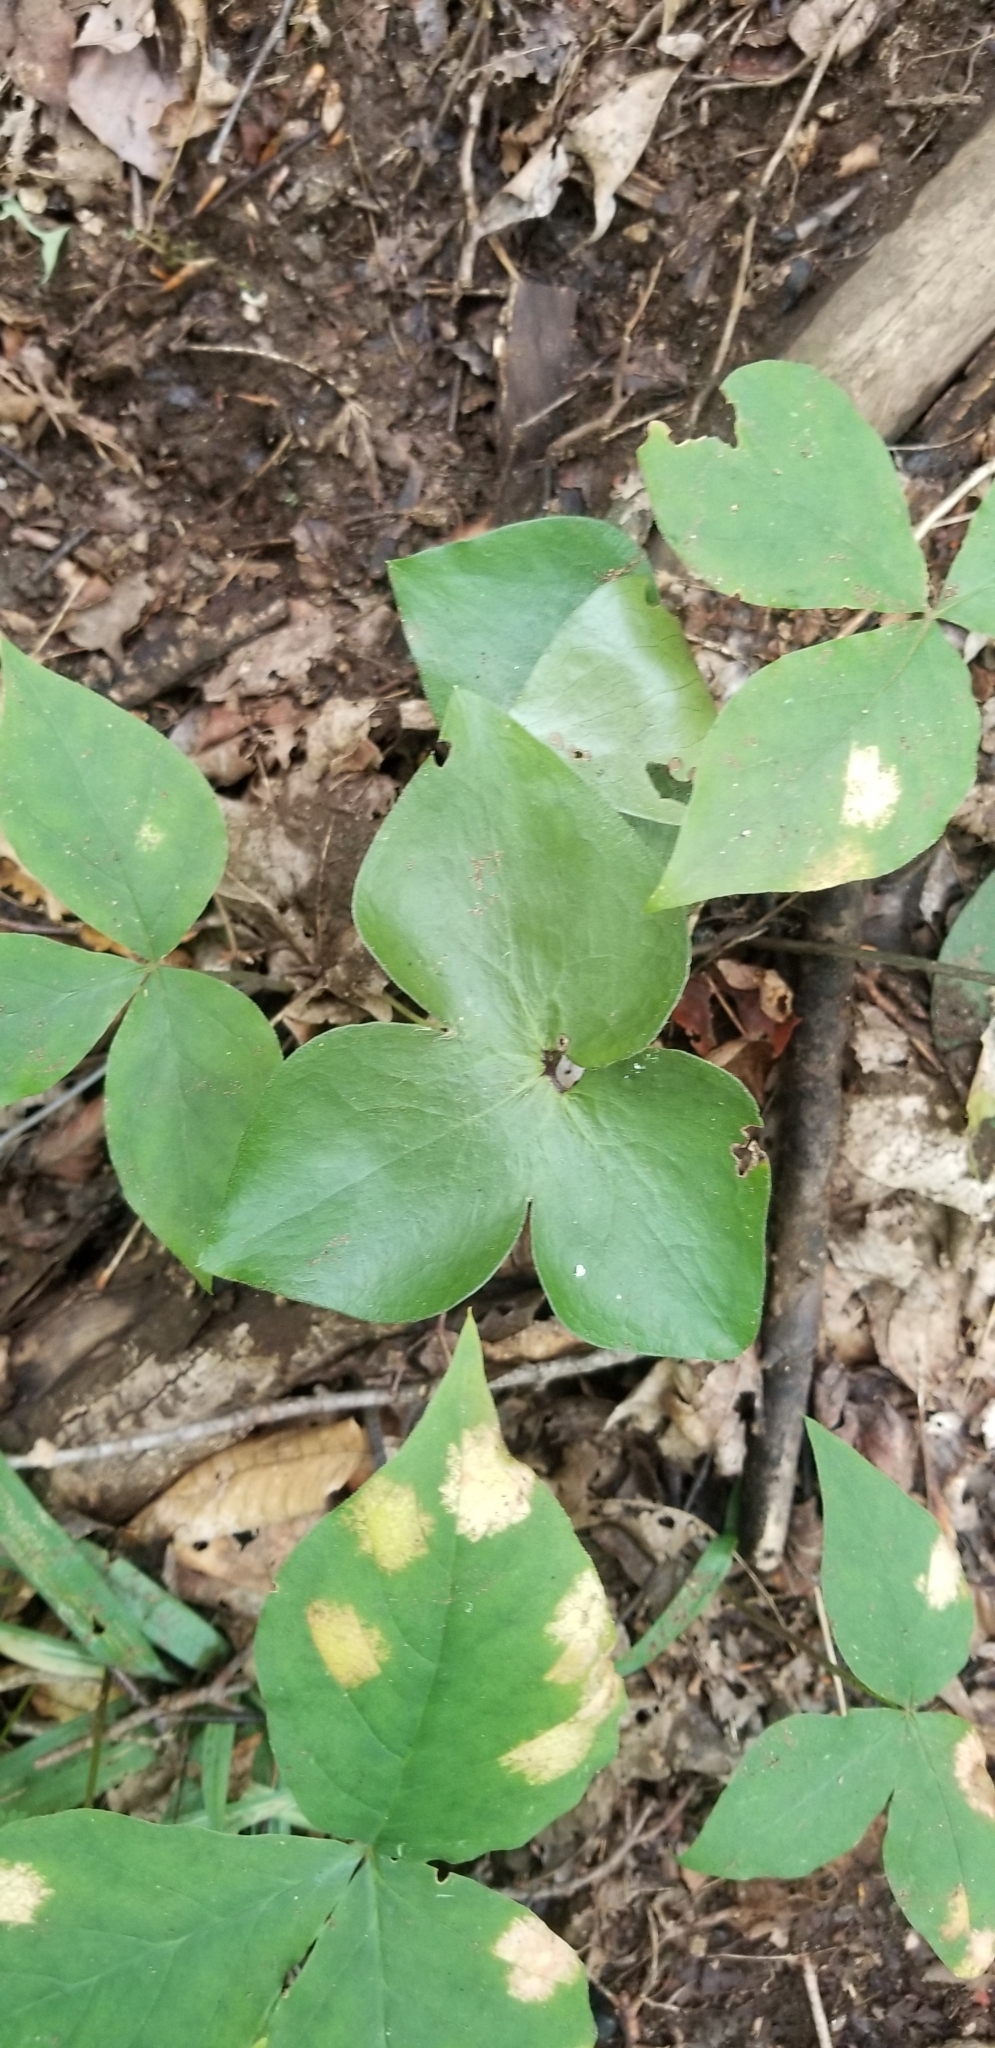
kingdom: Plantae
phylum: Tracheophyta
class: Magnoliopsida
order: Ranunculales
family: Ranunculaceae
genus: Hepatica
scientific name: Hepatica acutiloba
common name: Sharp-lobed hepatica
